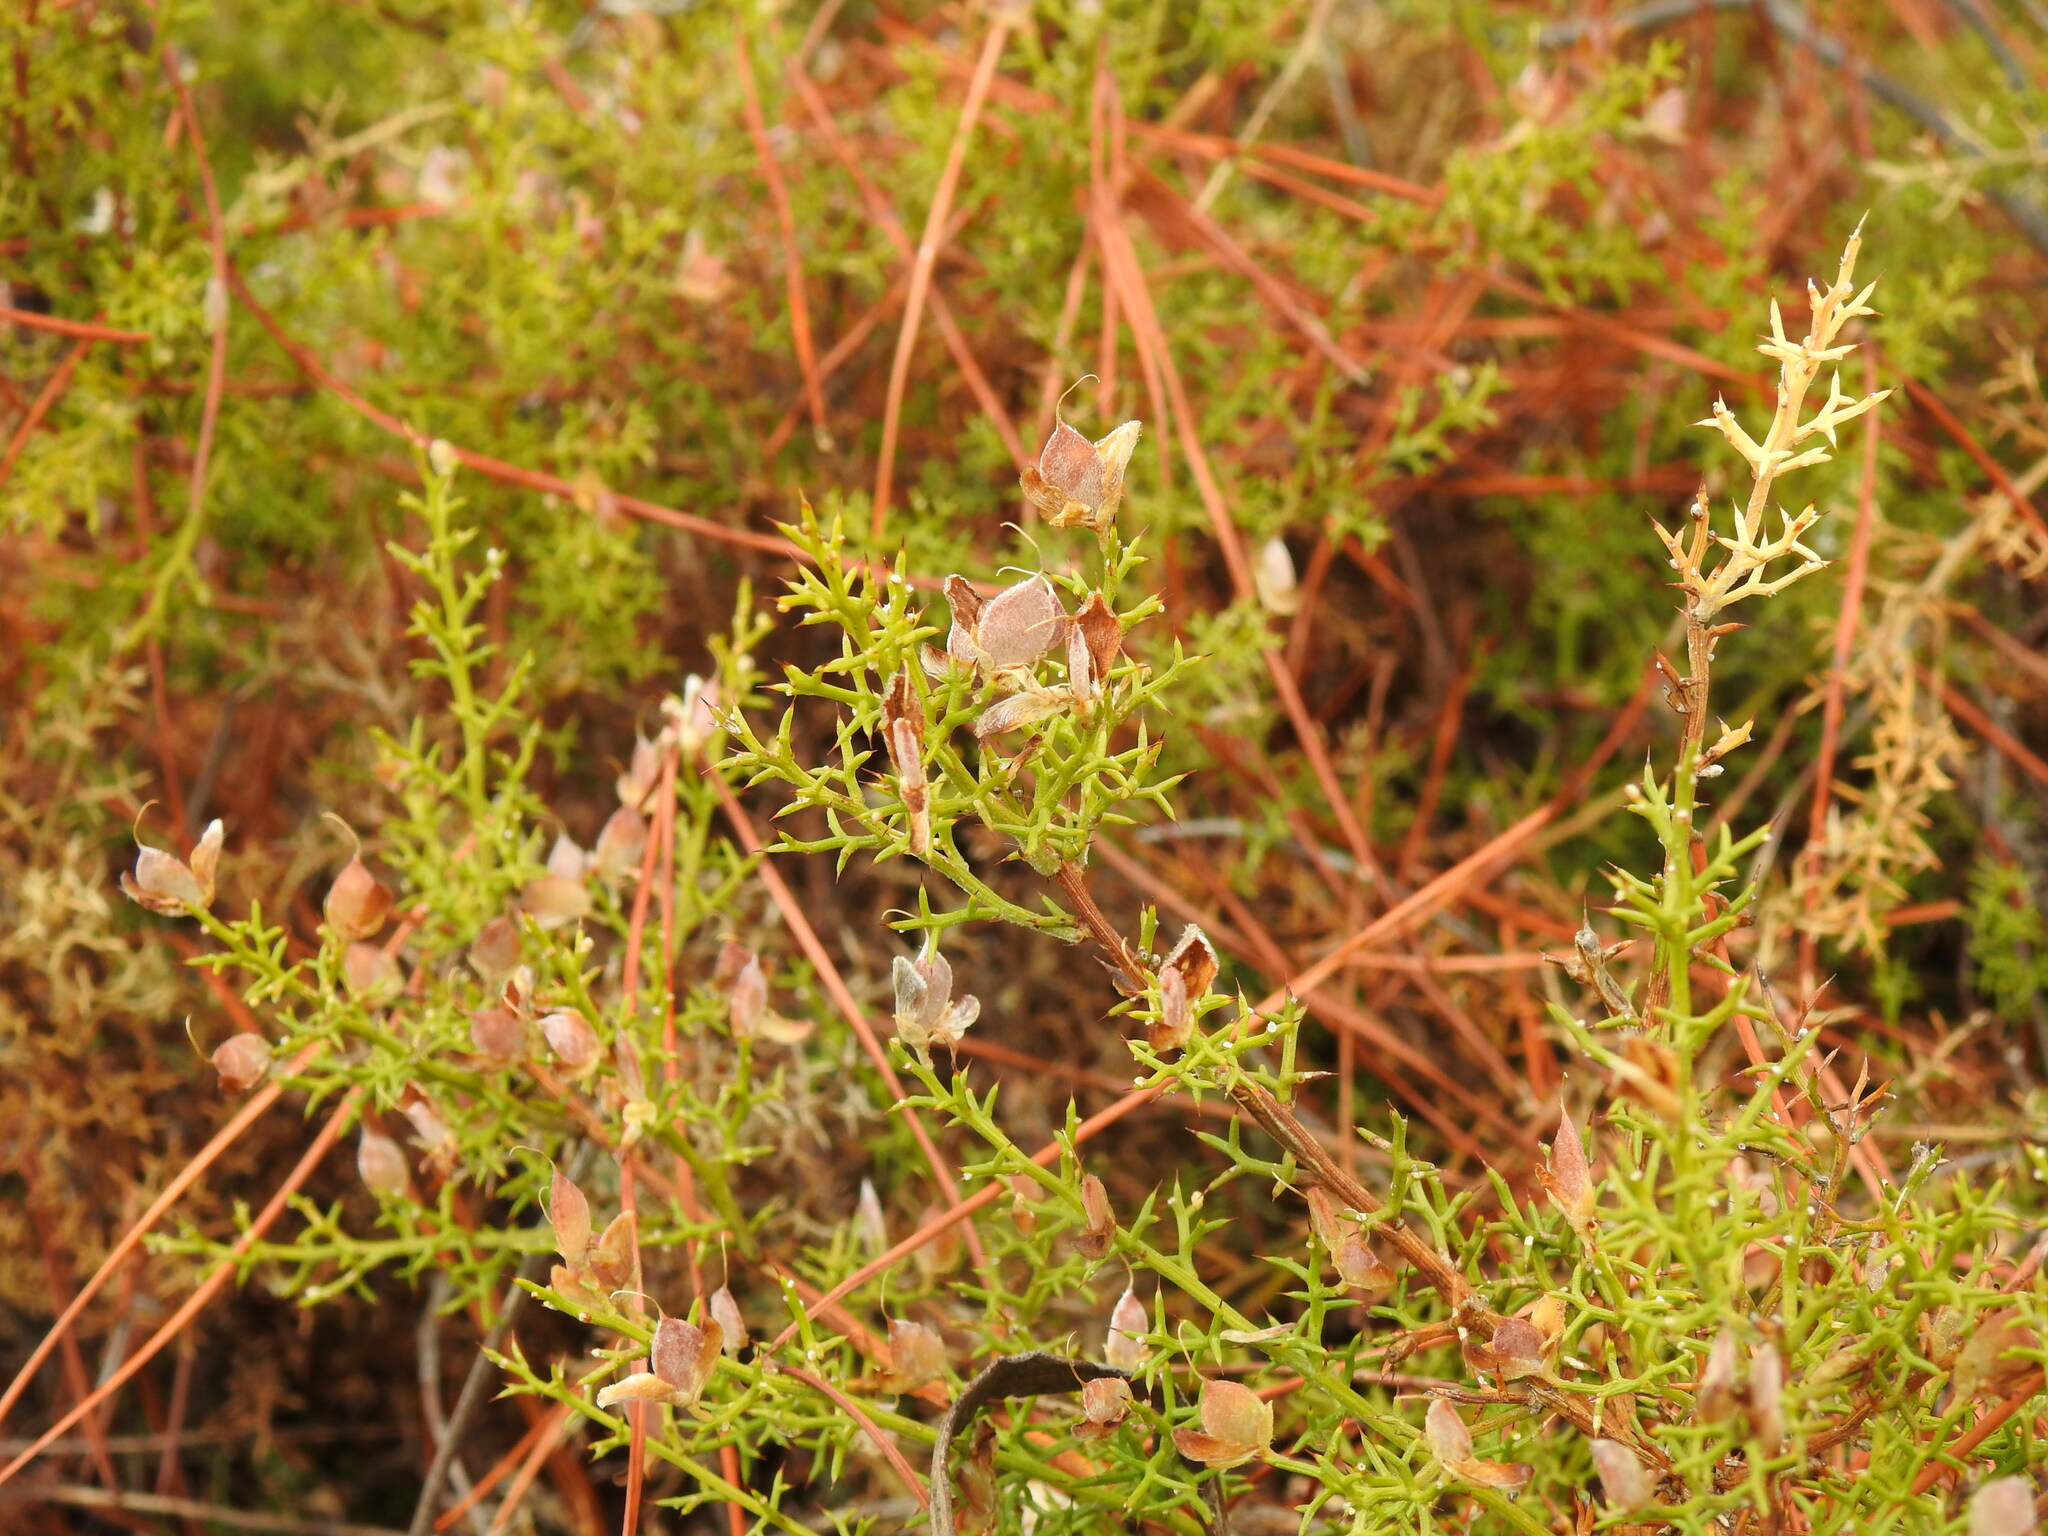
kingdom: Plantae
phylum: Tracheophyta
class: Magnoliopsida
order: Fabales
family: Fabaceae
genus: Stauracanthus
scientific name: Stauracanthus boivinii
